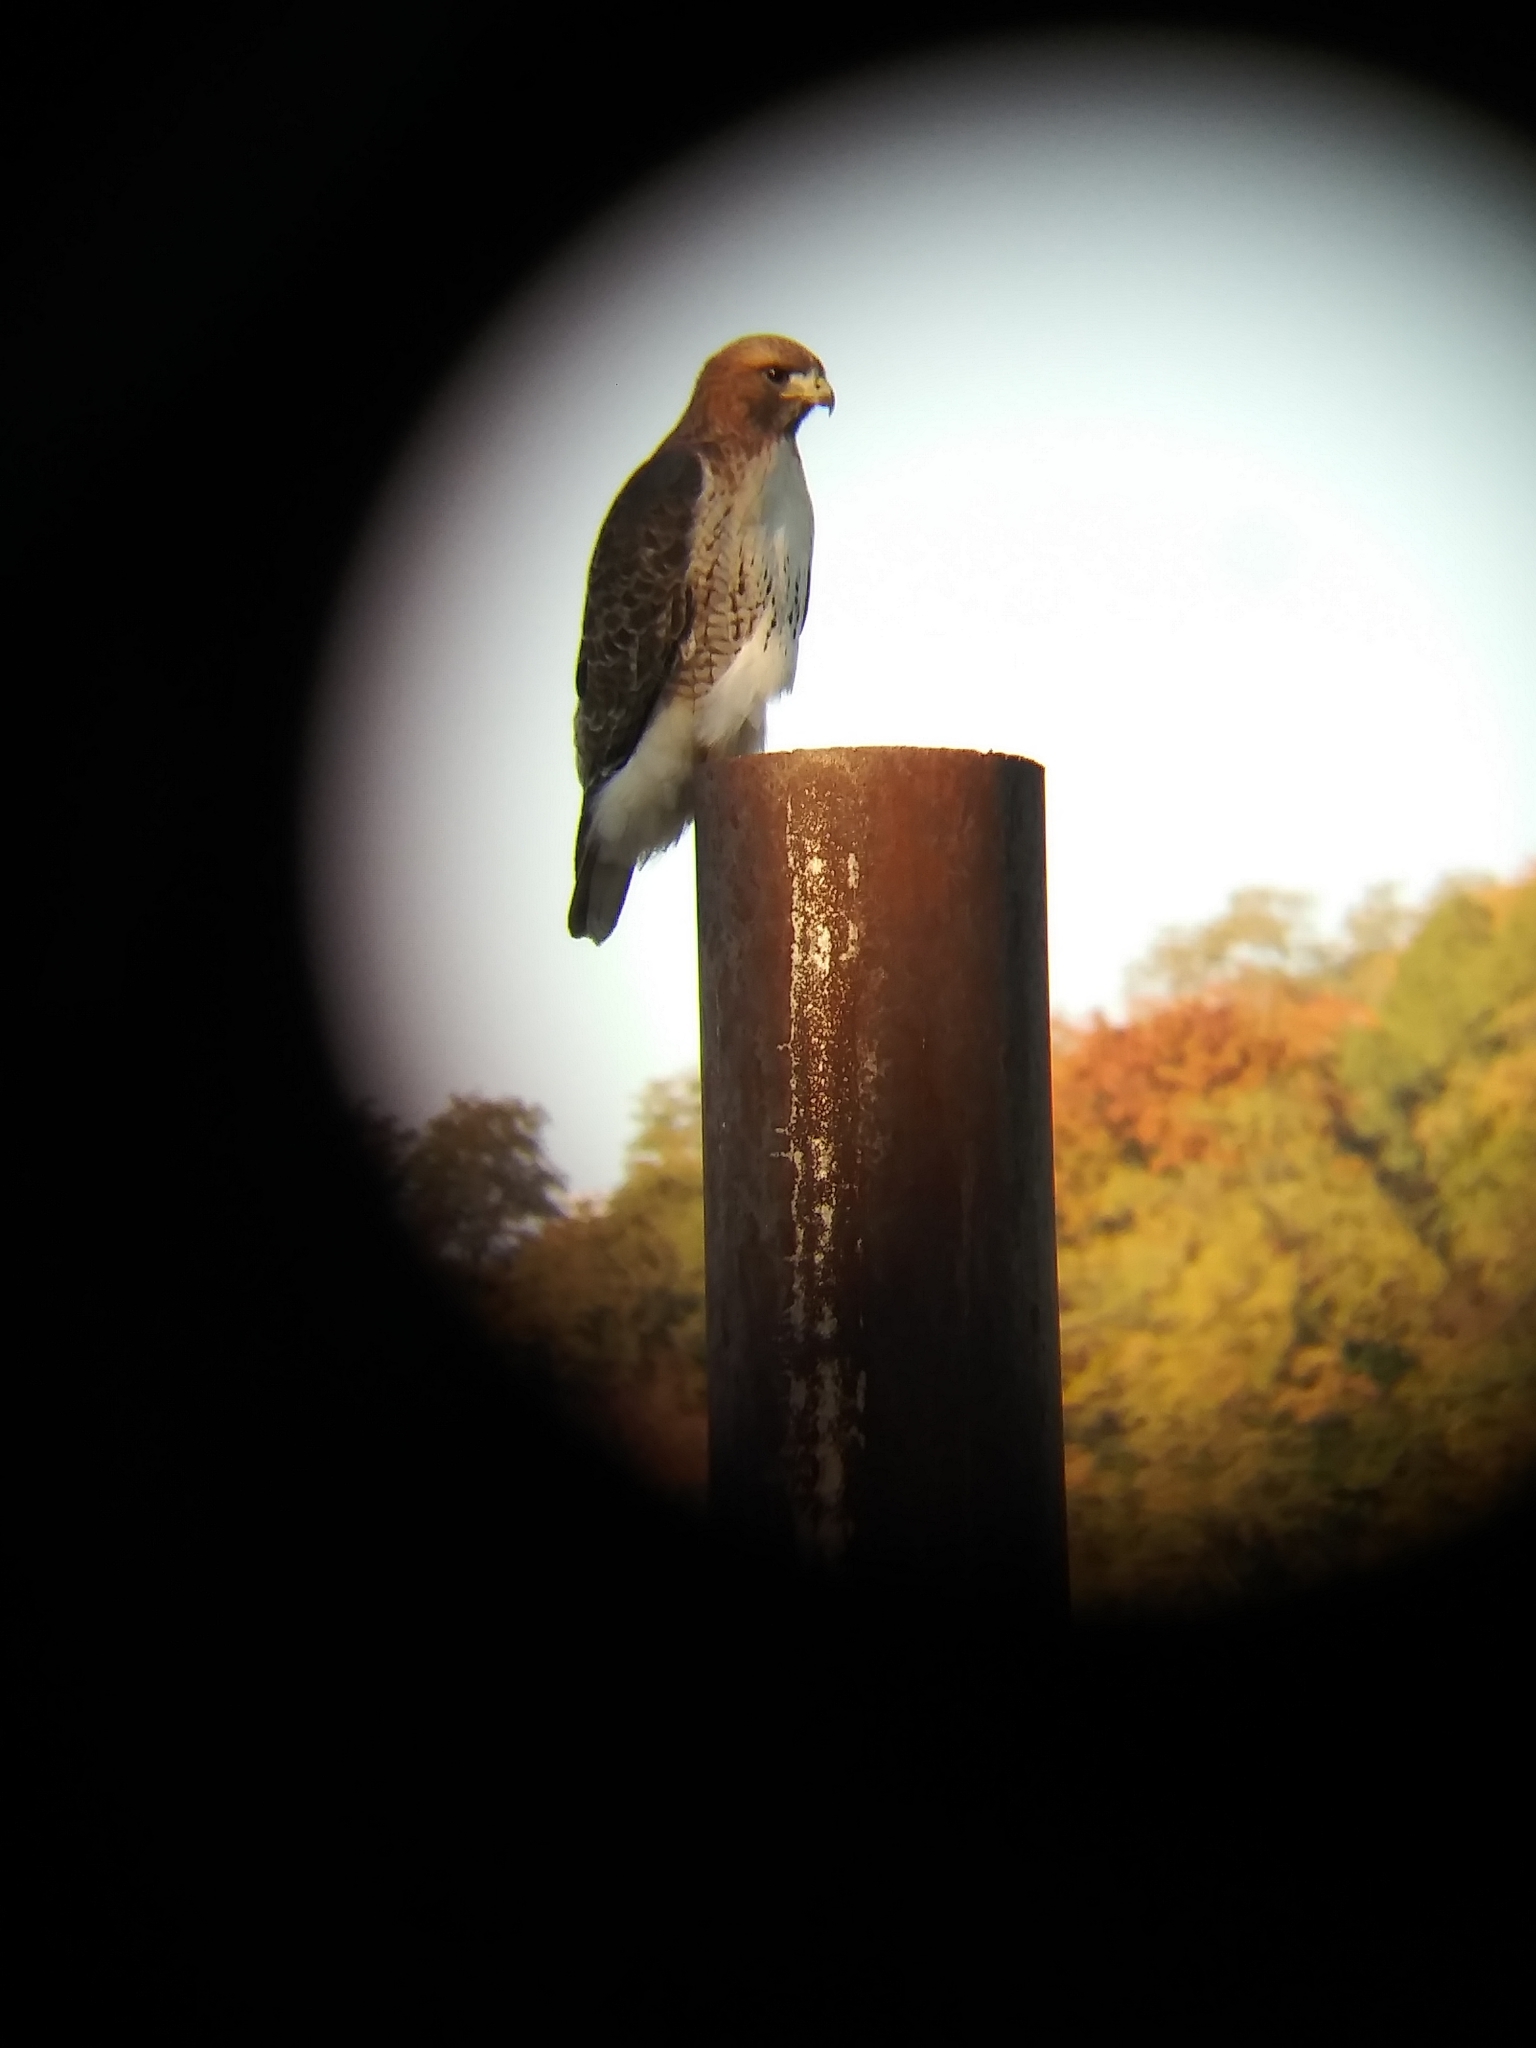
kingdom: Animalia
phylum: Chordata
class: Aves
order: Accipitriformes
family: Accipitridae
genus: Buteo
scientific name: Buteo jamaicensis
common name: Red-tailed hawk
